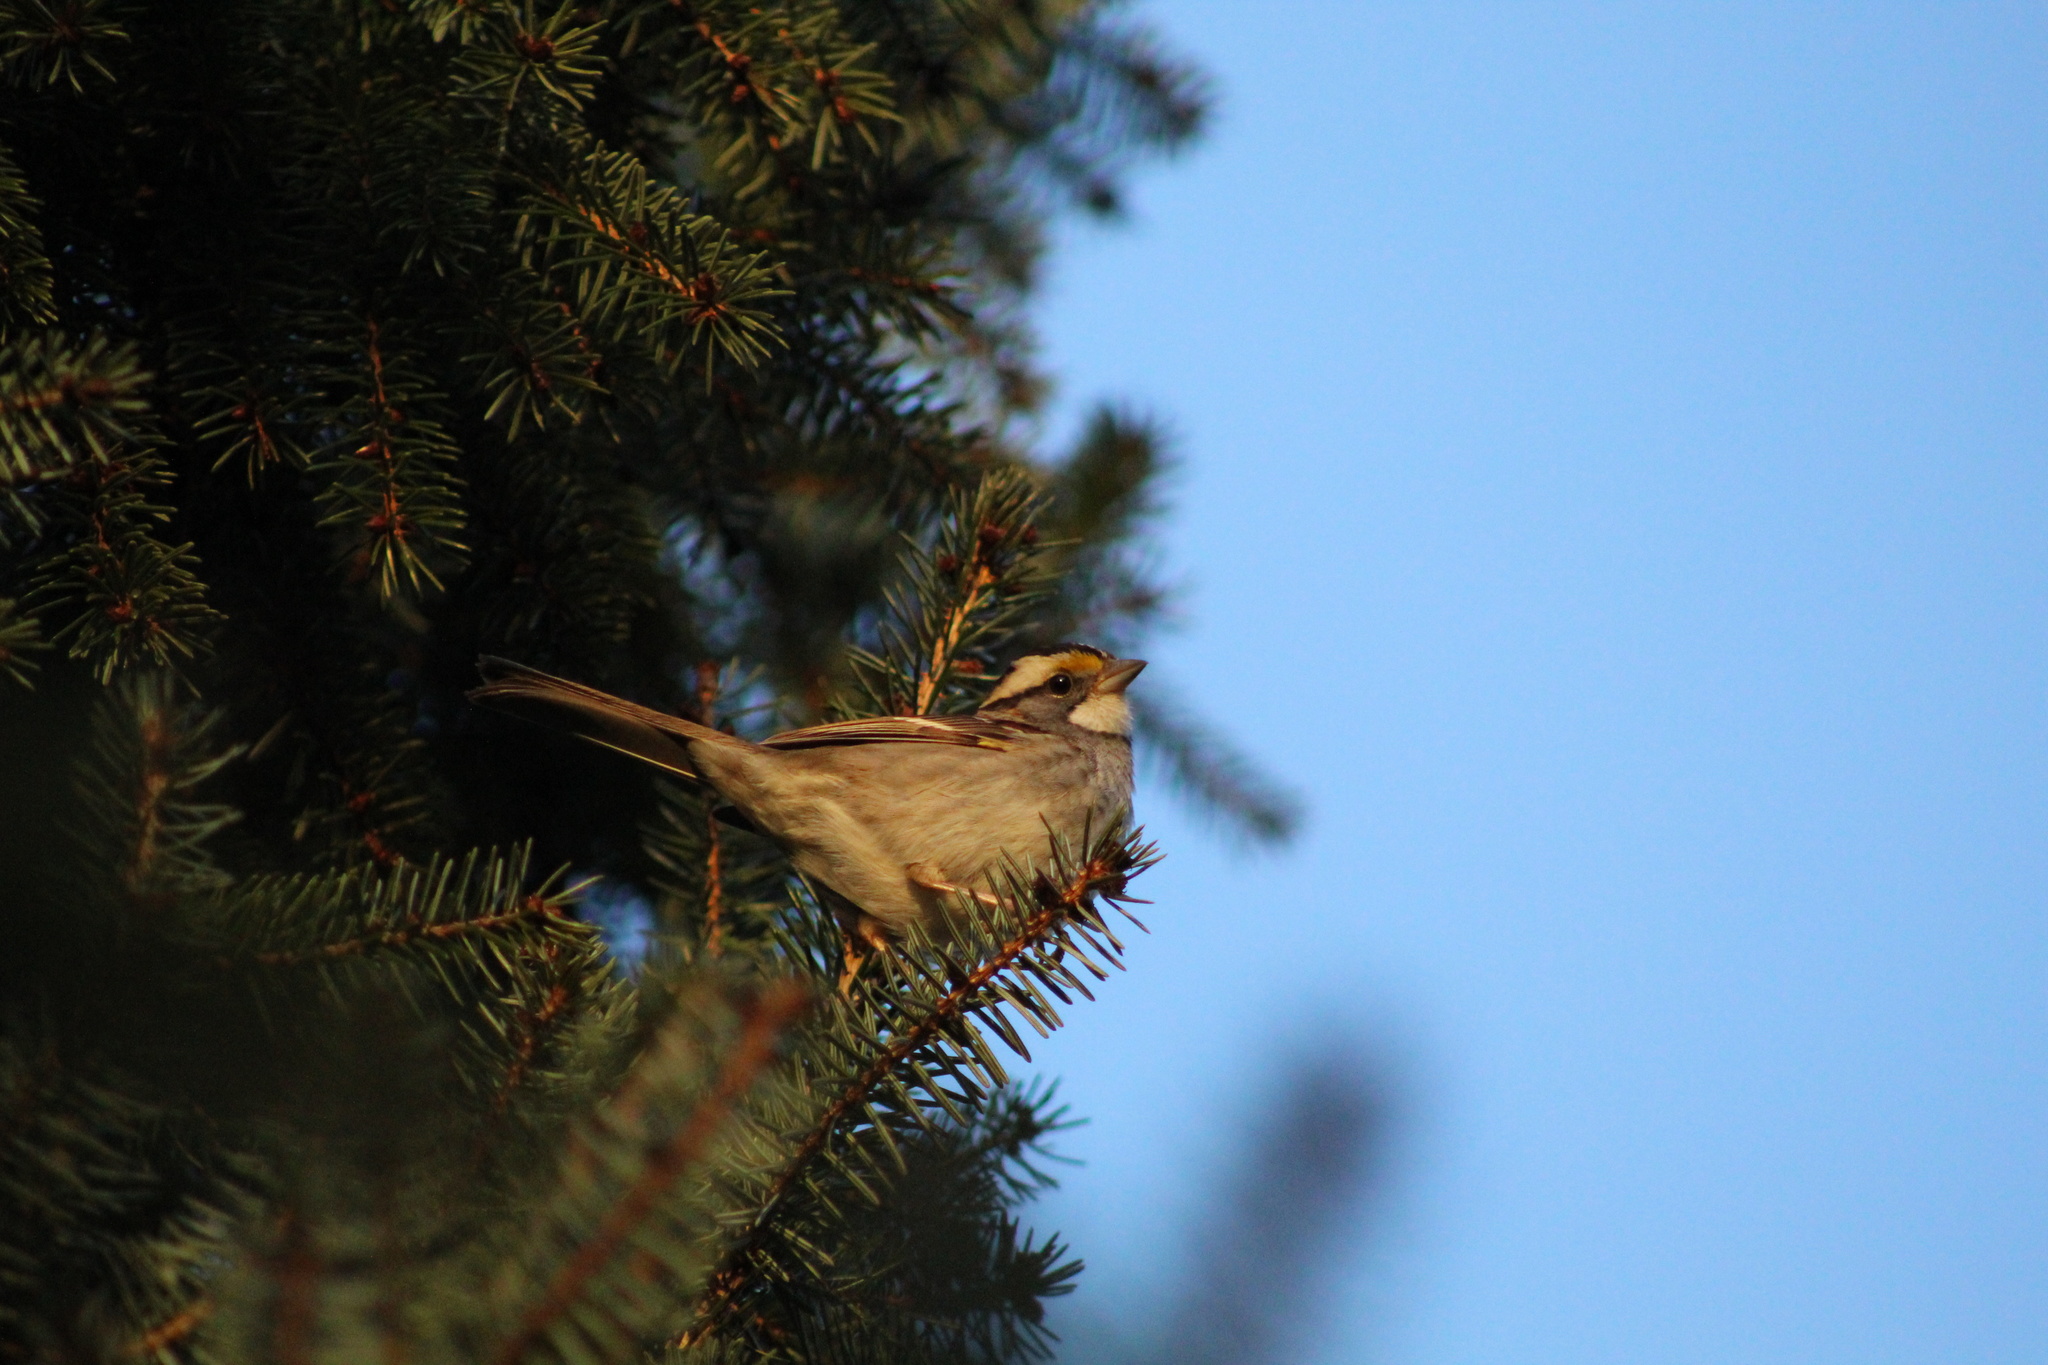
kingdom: Animalia
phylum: Chordata
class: Aves
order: Passeriformes
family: Passerellidae
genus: Zonotrichia
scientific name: Zonotrichia albicollis
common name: White-throated sparrow
